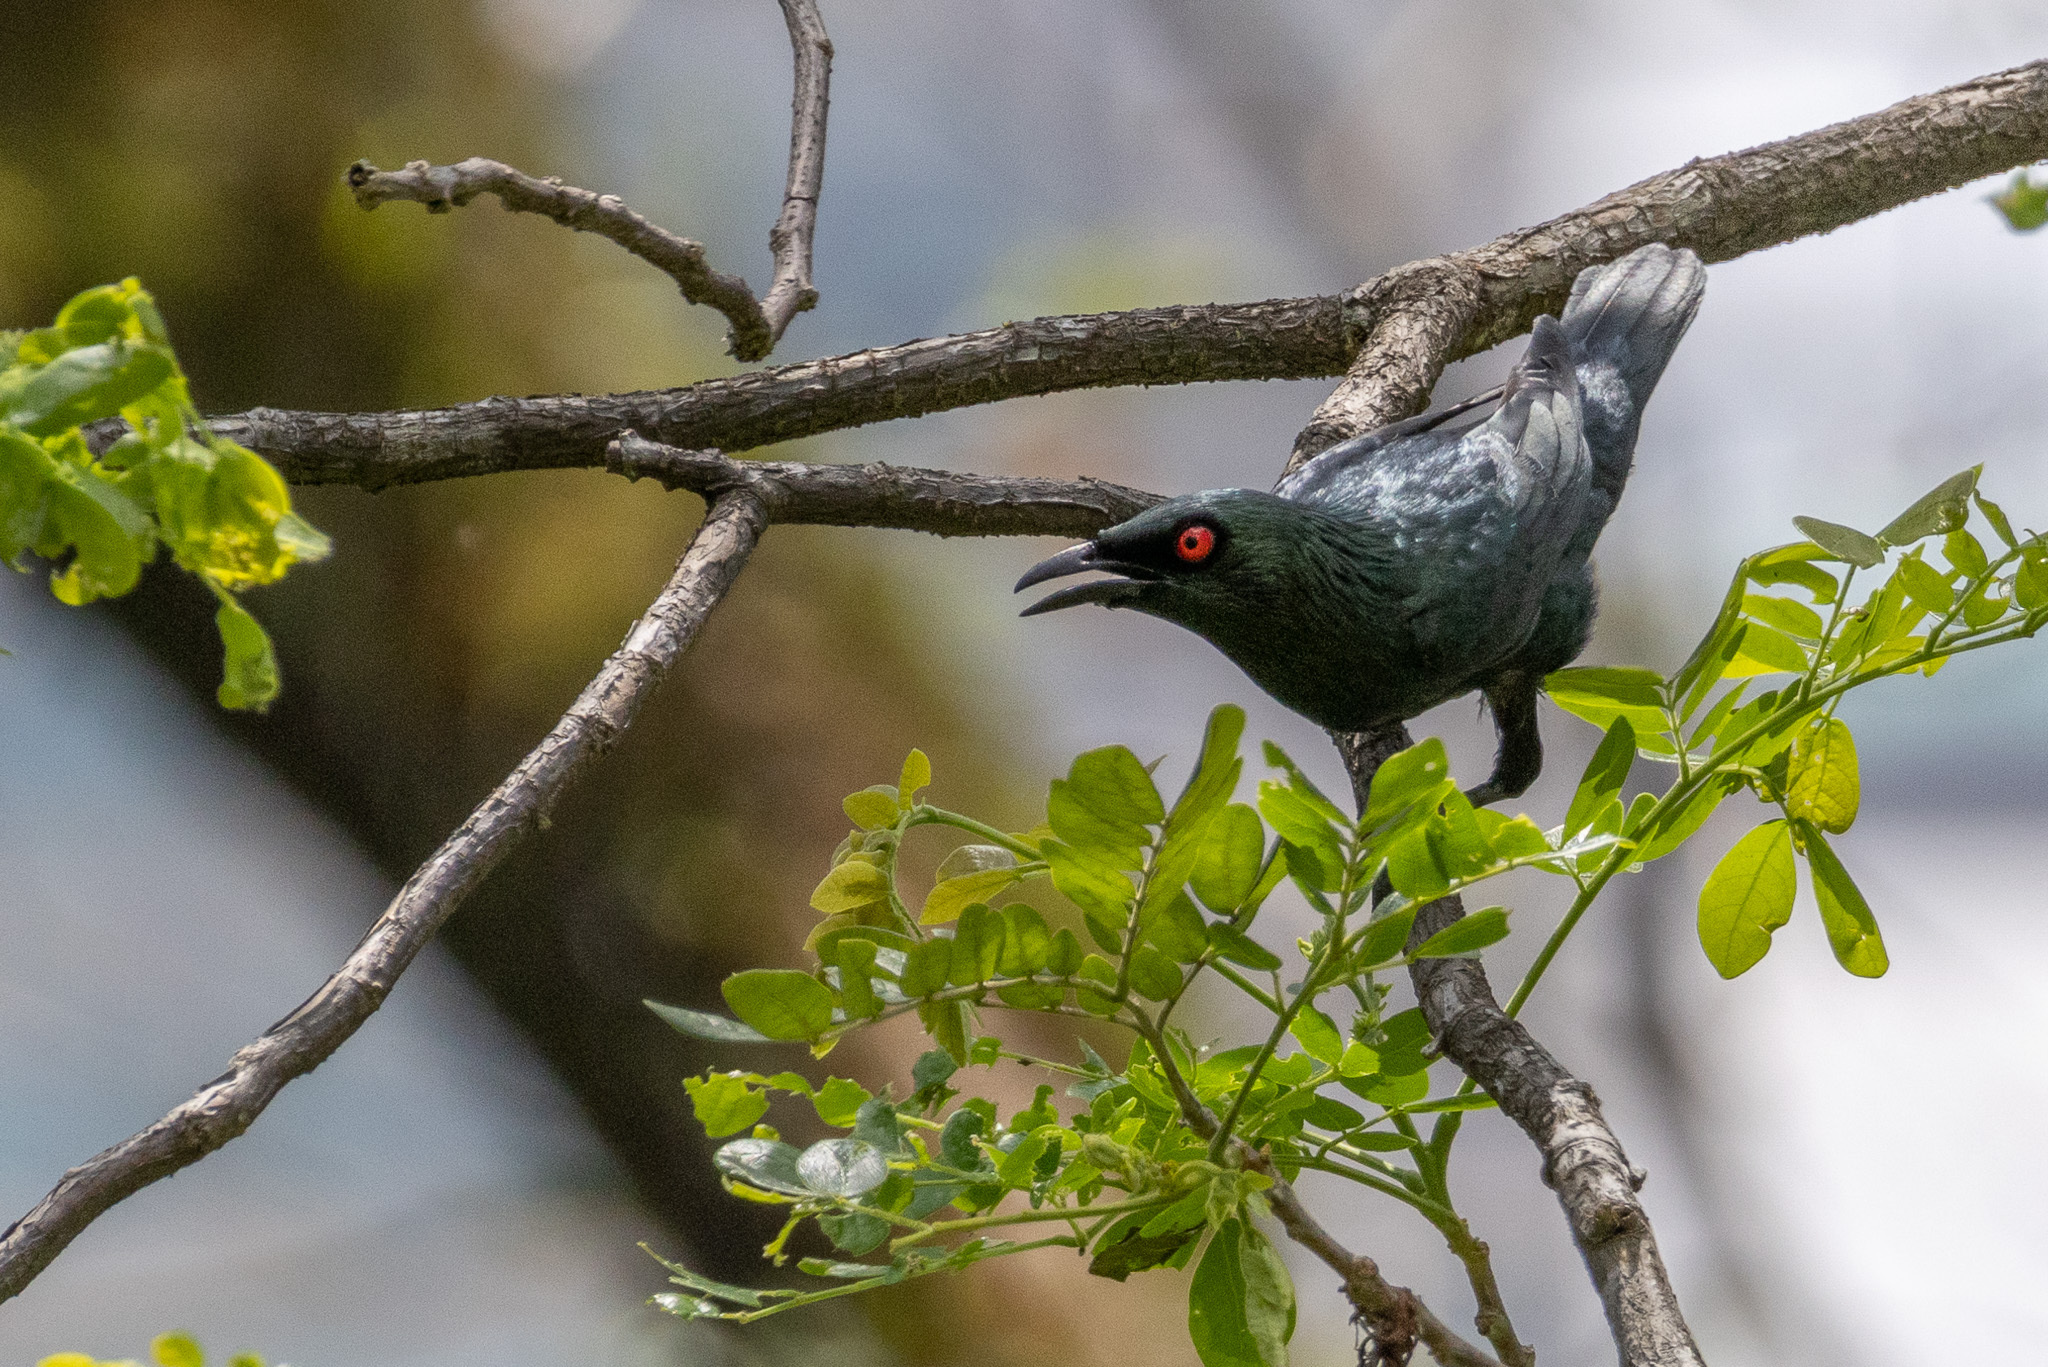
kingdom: Animalia
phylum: Chordata
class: Aves
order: Passeriformes
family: Sturnidae
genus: Aplonis
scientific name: Aplonis panayensis
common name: Asian glossy starling
